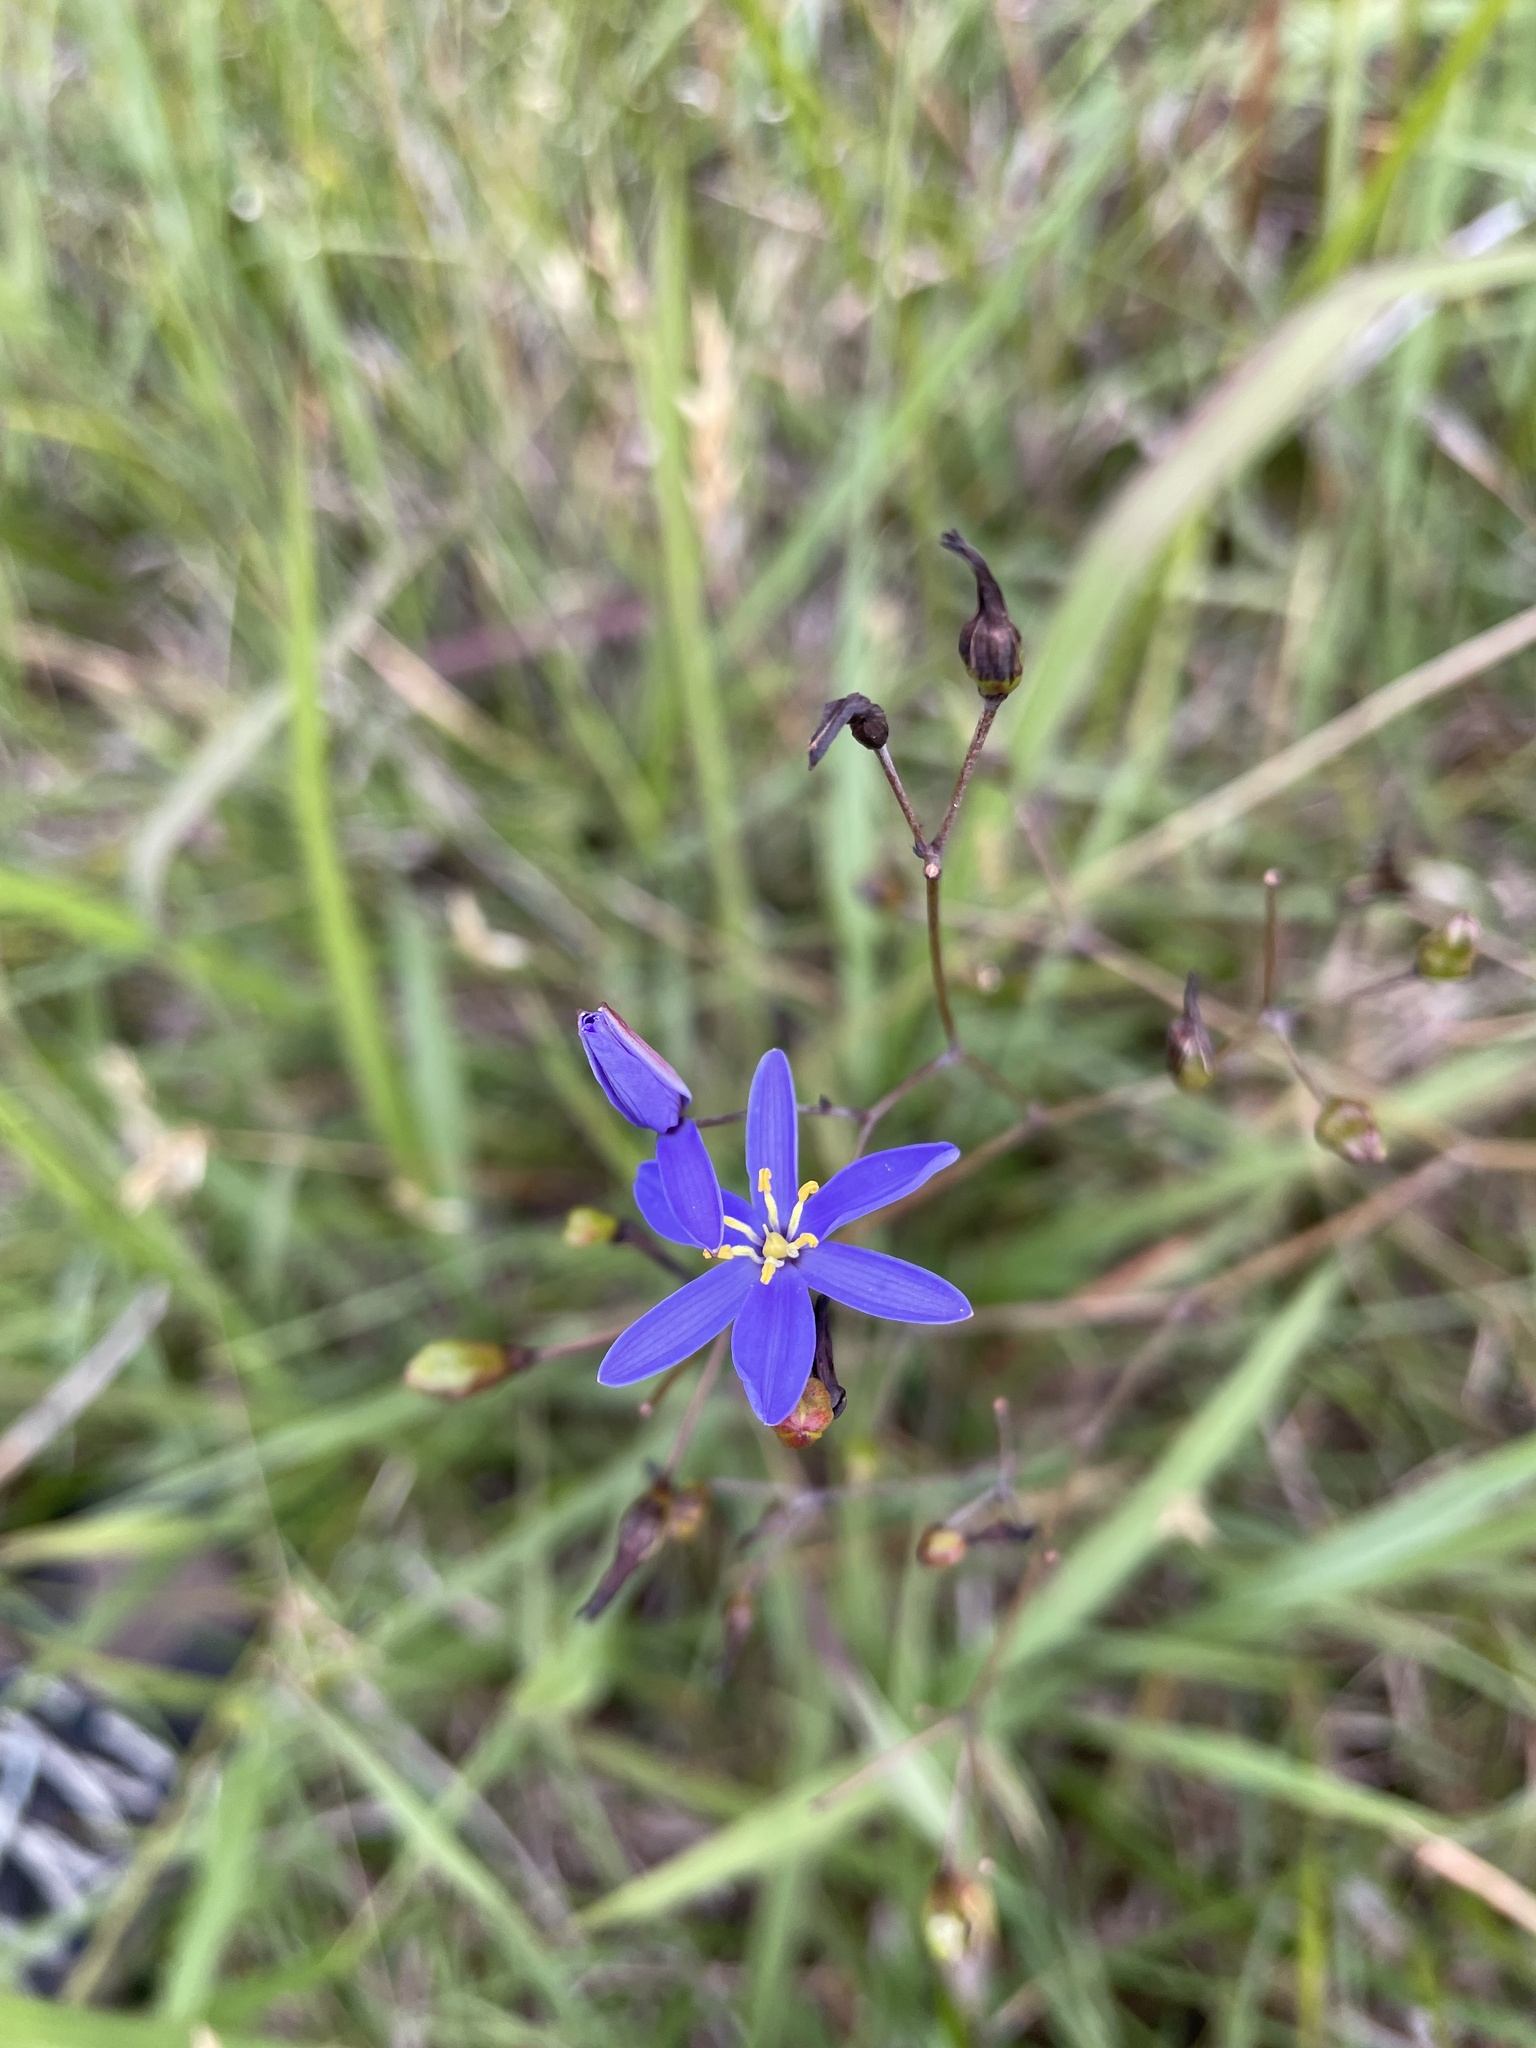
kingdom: Plantae
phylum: Tracheophyta
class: Liliopsida
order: Asparagales
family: Asphodelaceae
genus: Thelionema
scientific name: Thelionema caespitosum
